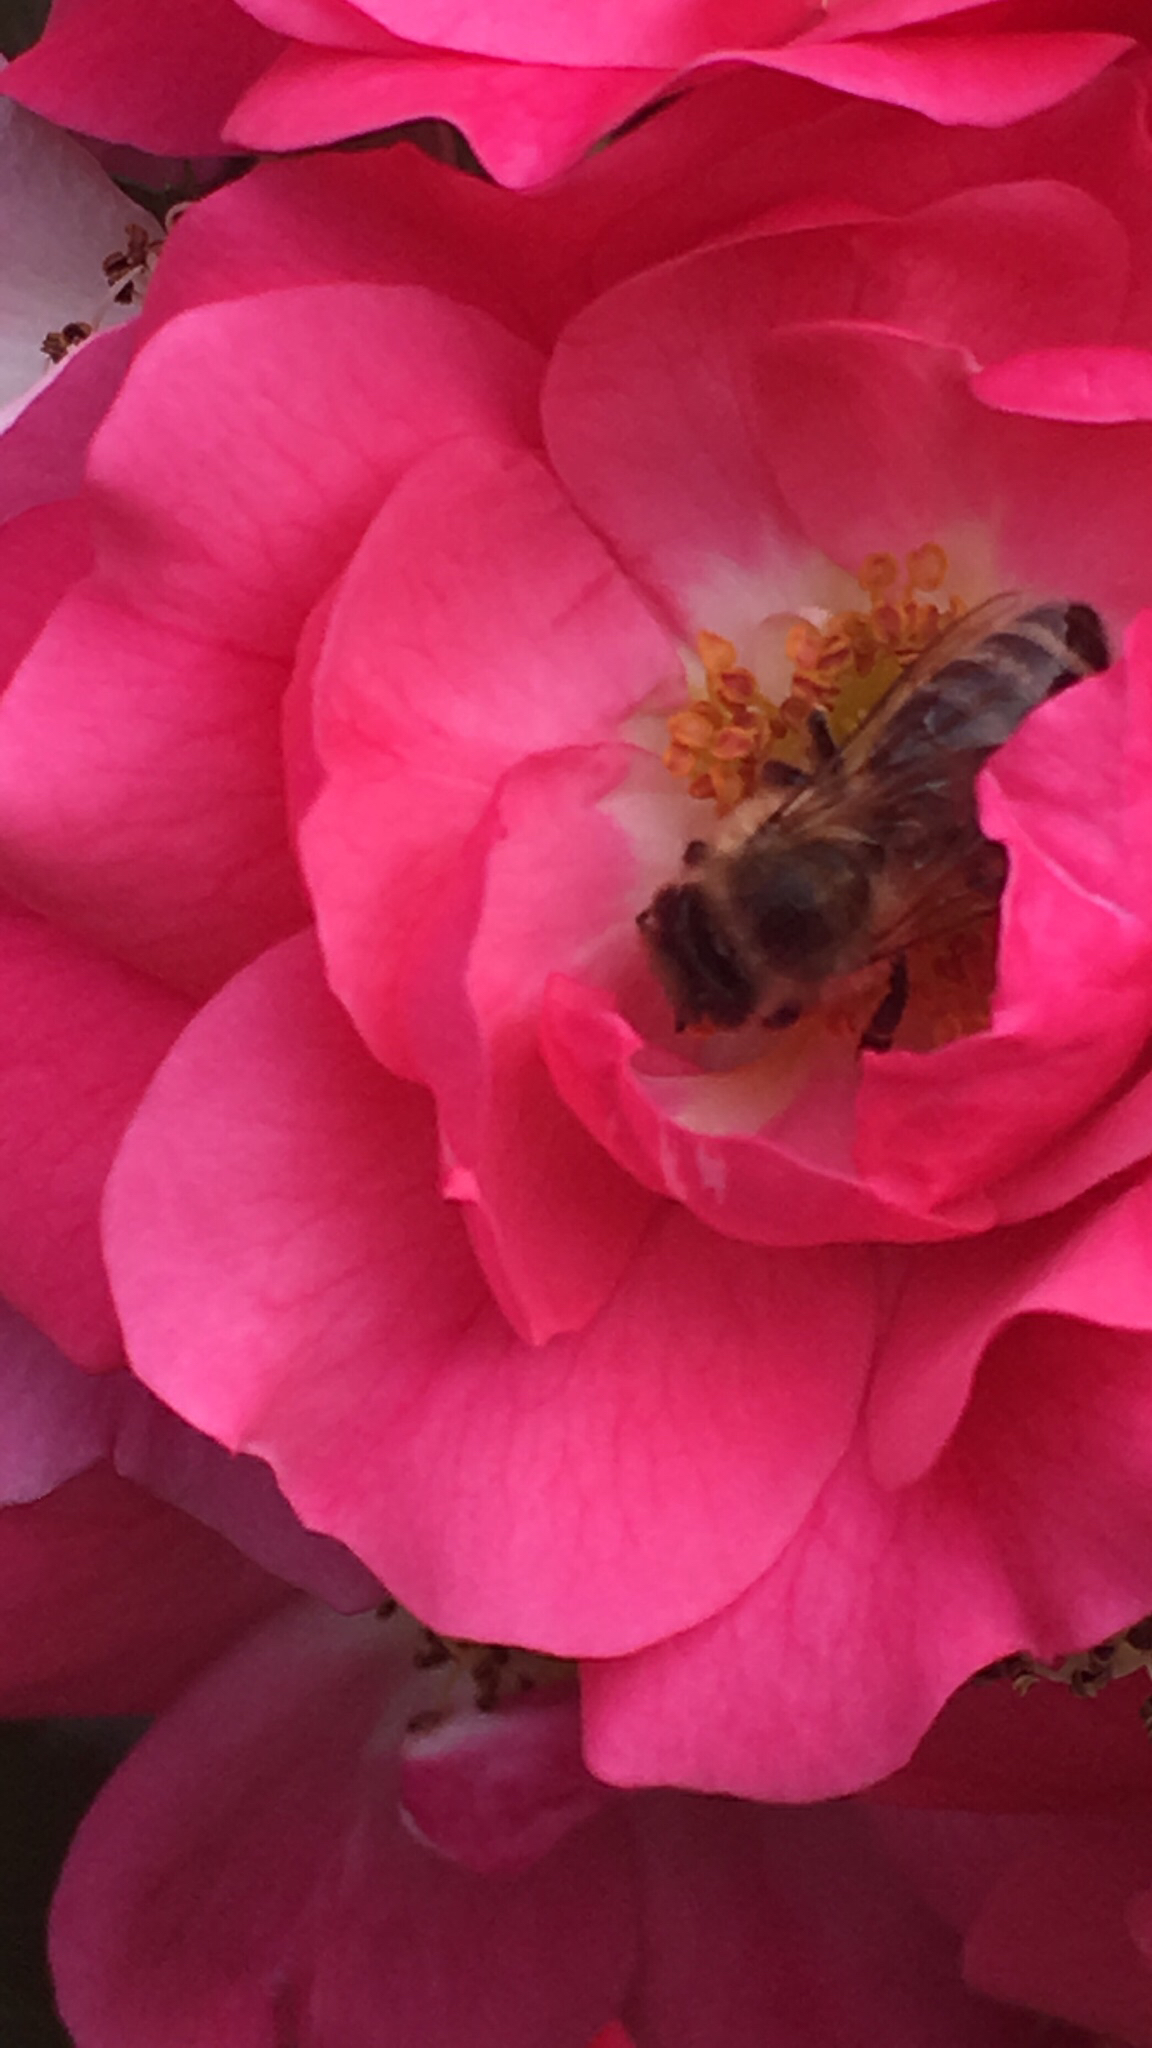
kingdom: Animalia
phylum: Arthropoda
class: Insecta
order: Hymenoptera
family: Apidae
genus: Apis
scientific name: Apis mellifera
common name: Honey bee
